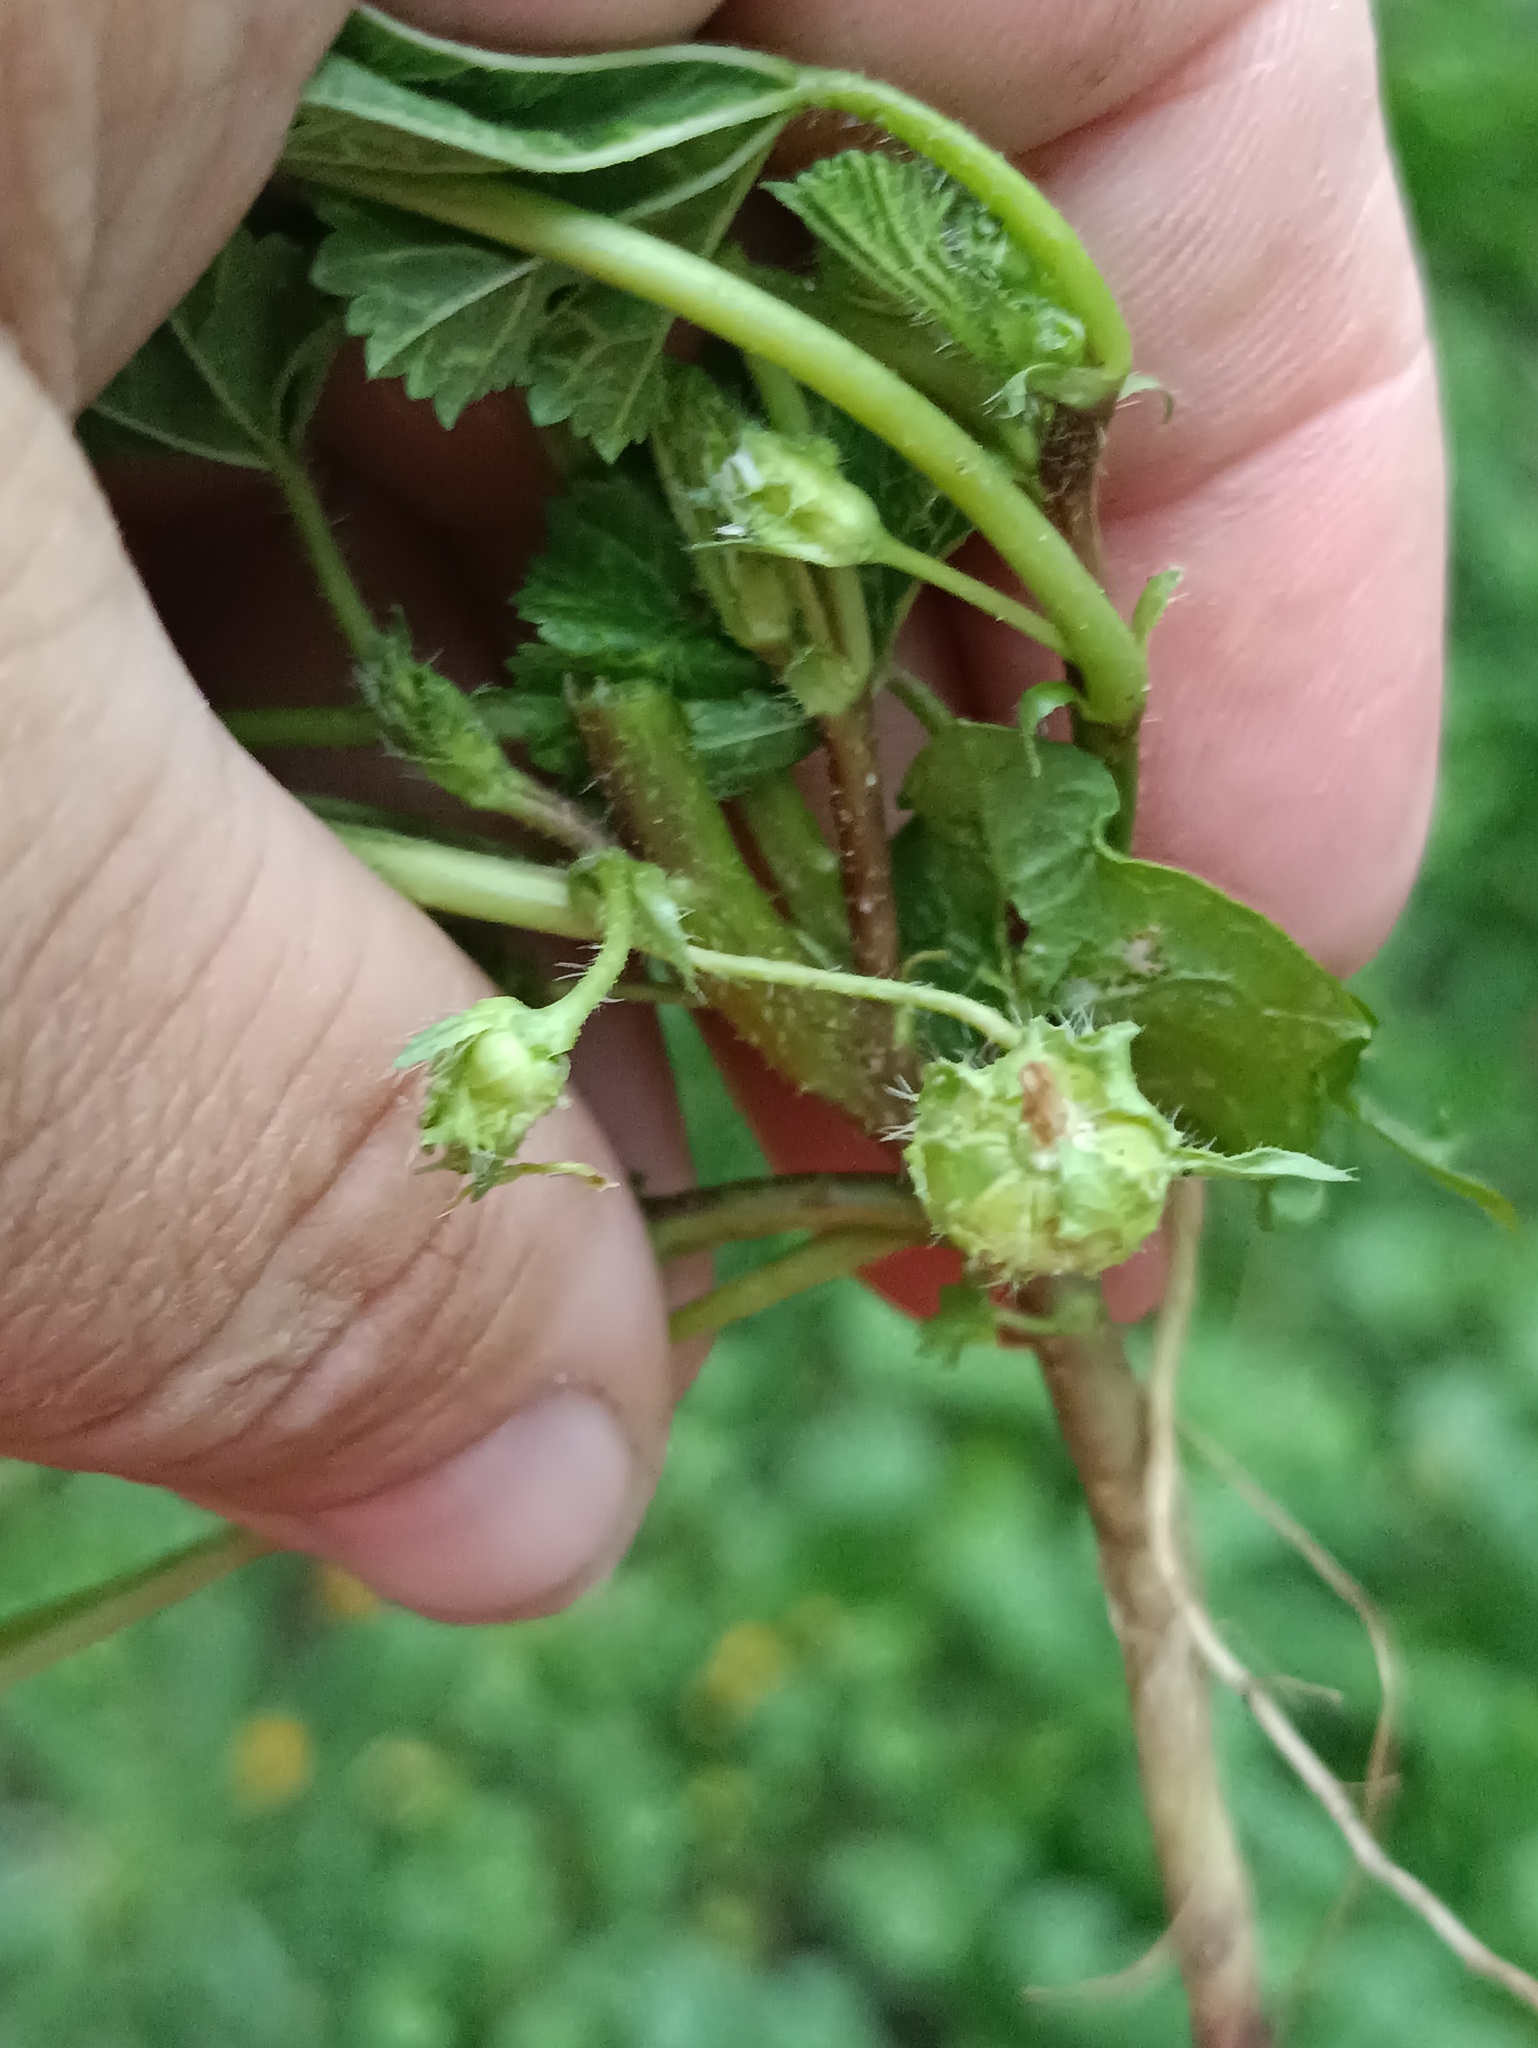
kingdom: Plantae
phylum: Tracheophyta
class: Magnoliopsida
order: Malvales
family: Malvaceae
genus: Malva
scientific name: Malva pusilla
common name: Small mallow
